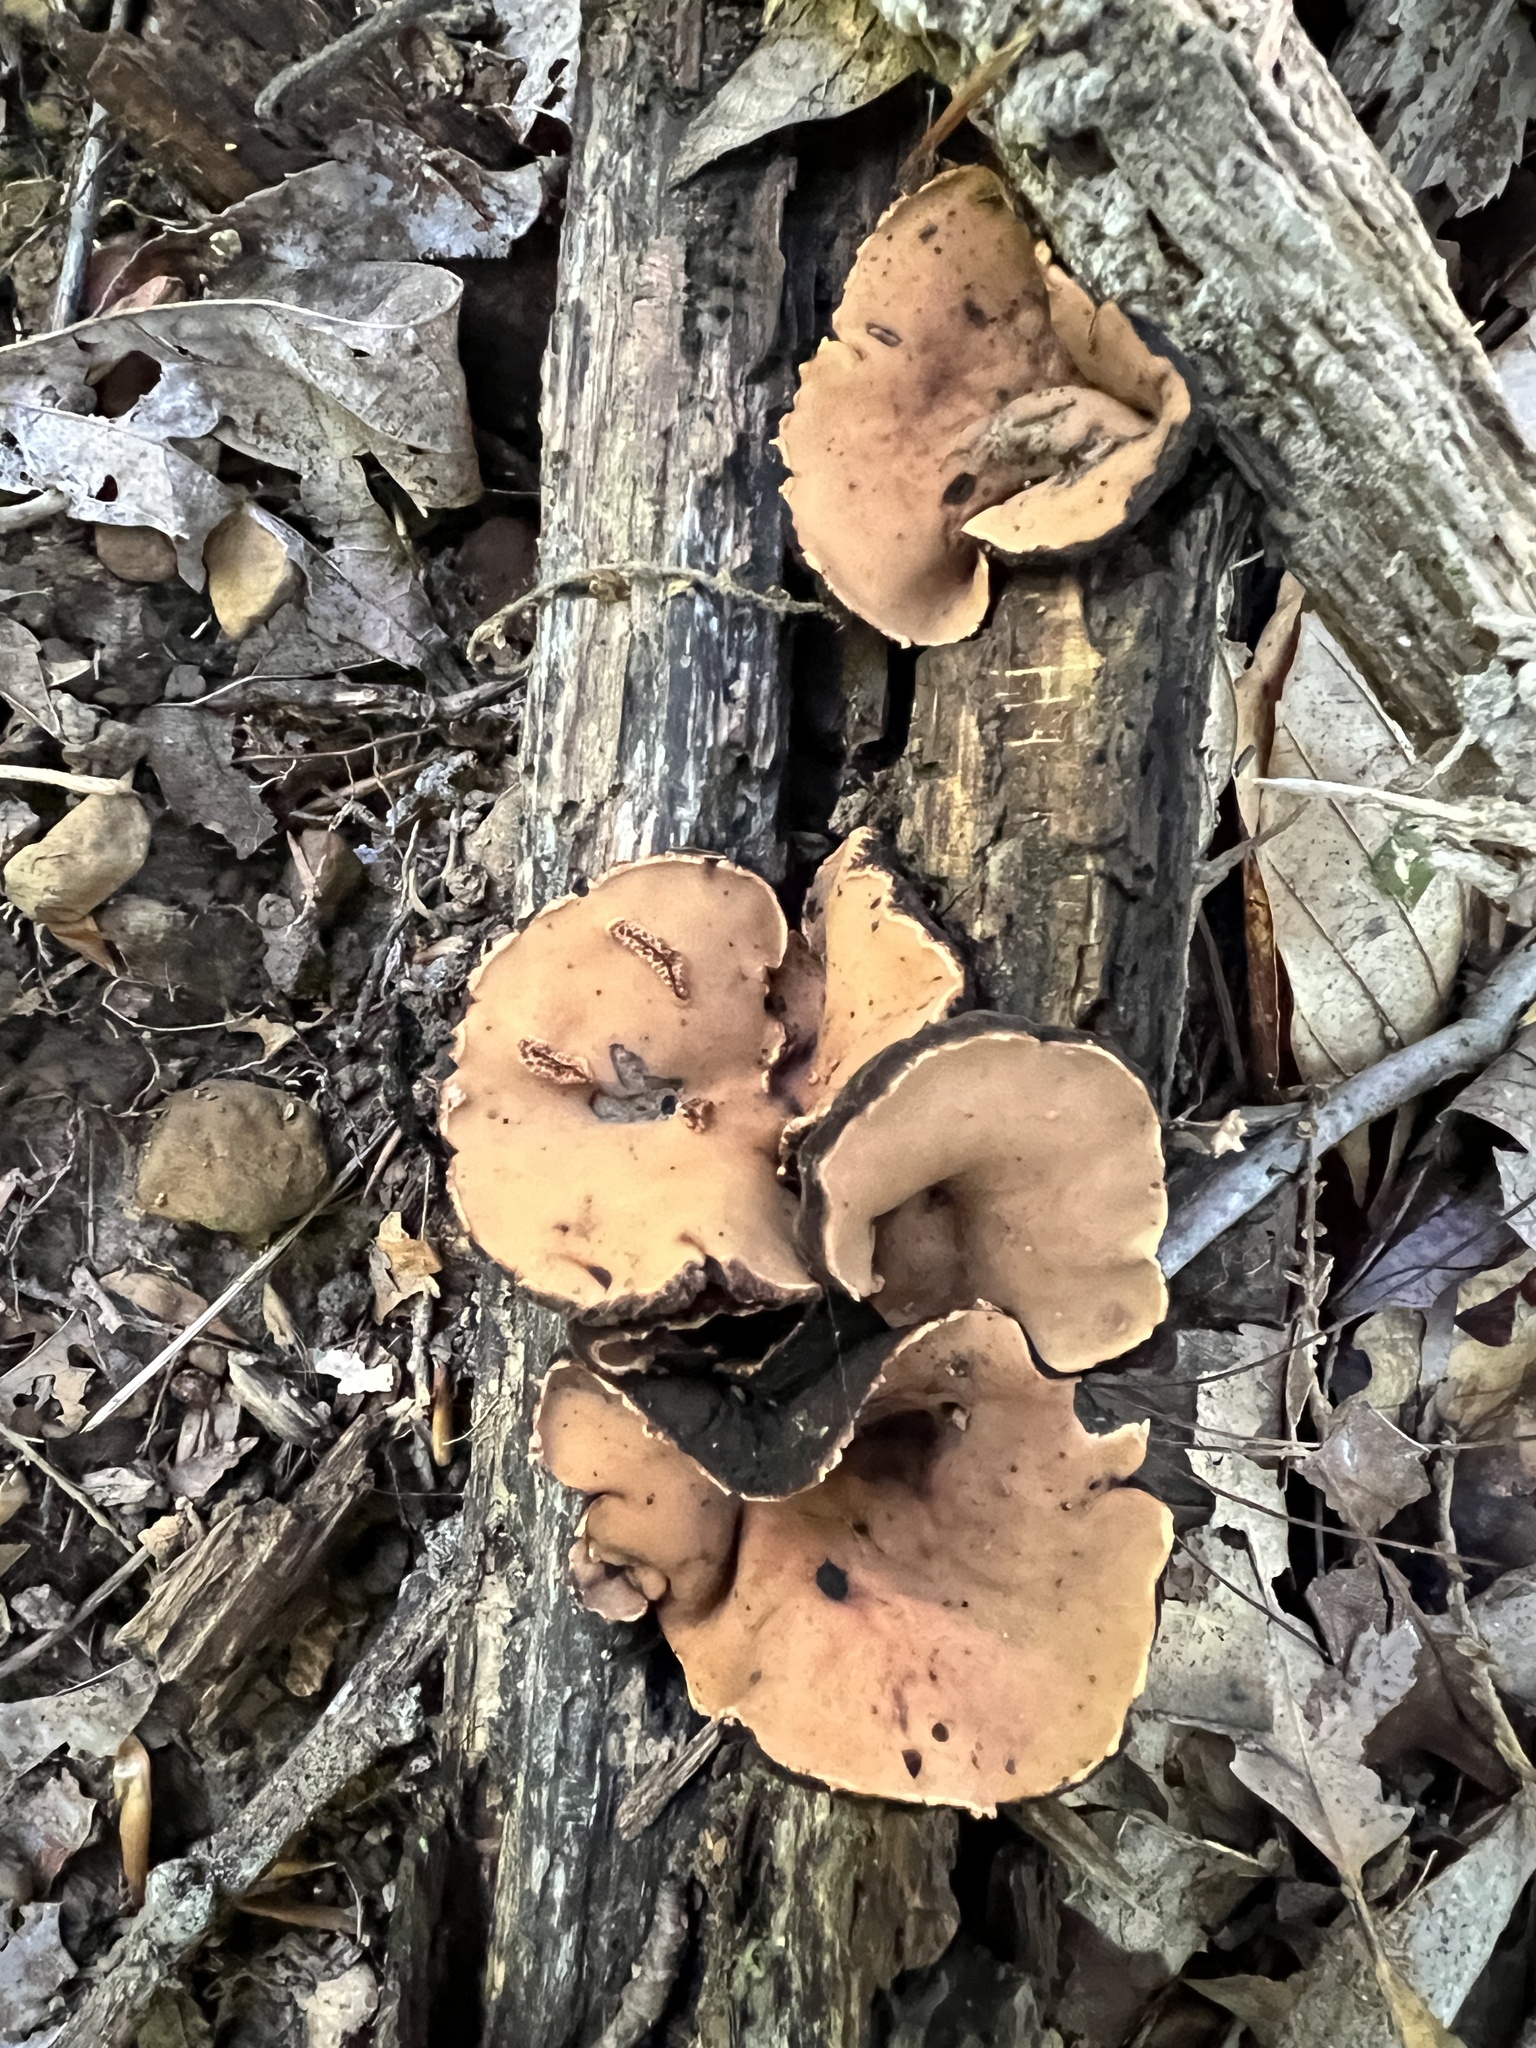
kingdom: Fungi
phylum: Ascomycota
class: Pezizomycetes
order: Pezizales
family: Sarcosomataceae
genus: Galiella
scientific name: Galiella rufa
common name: Hairy rubber cup
